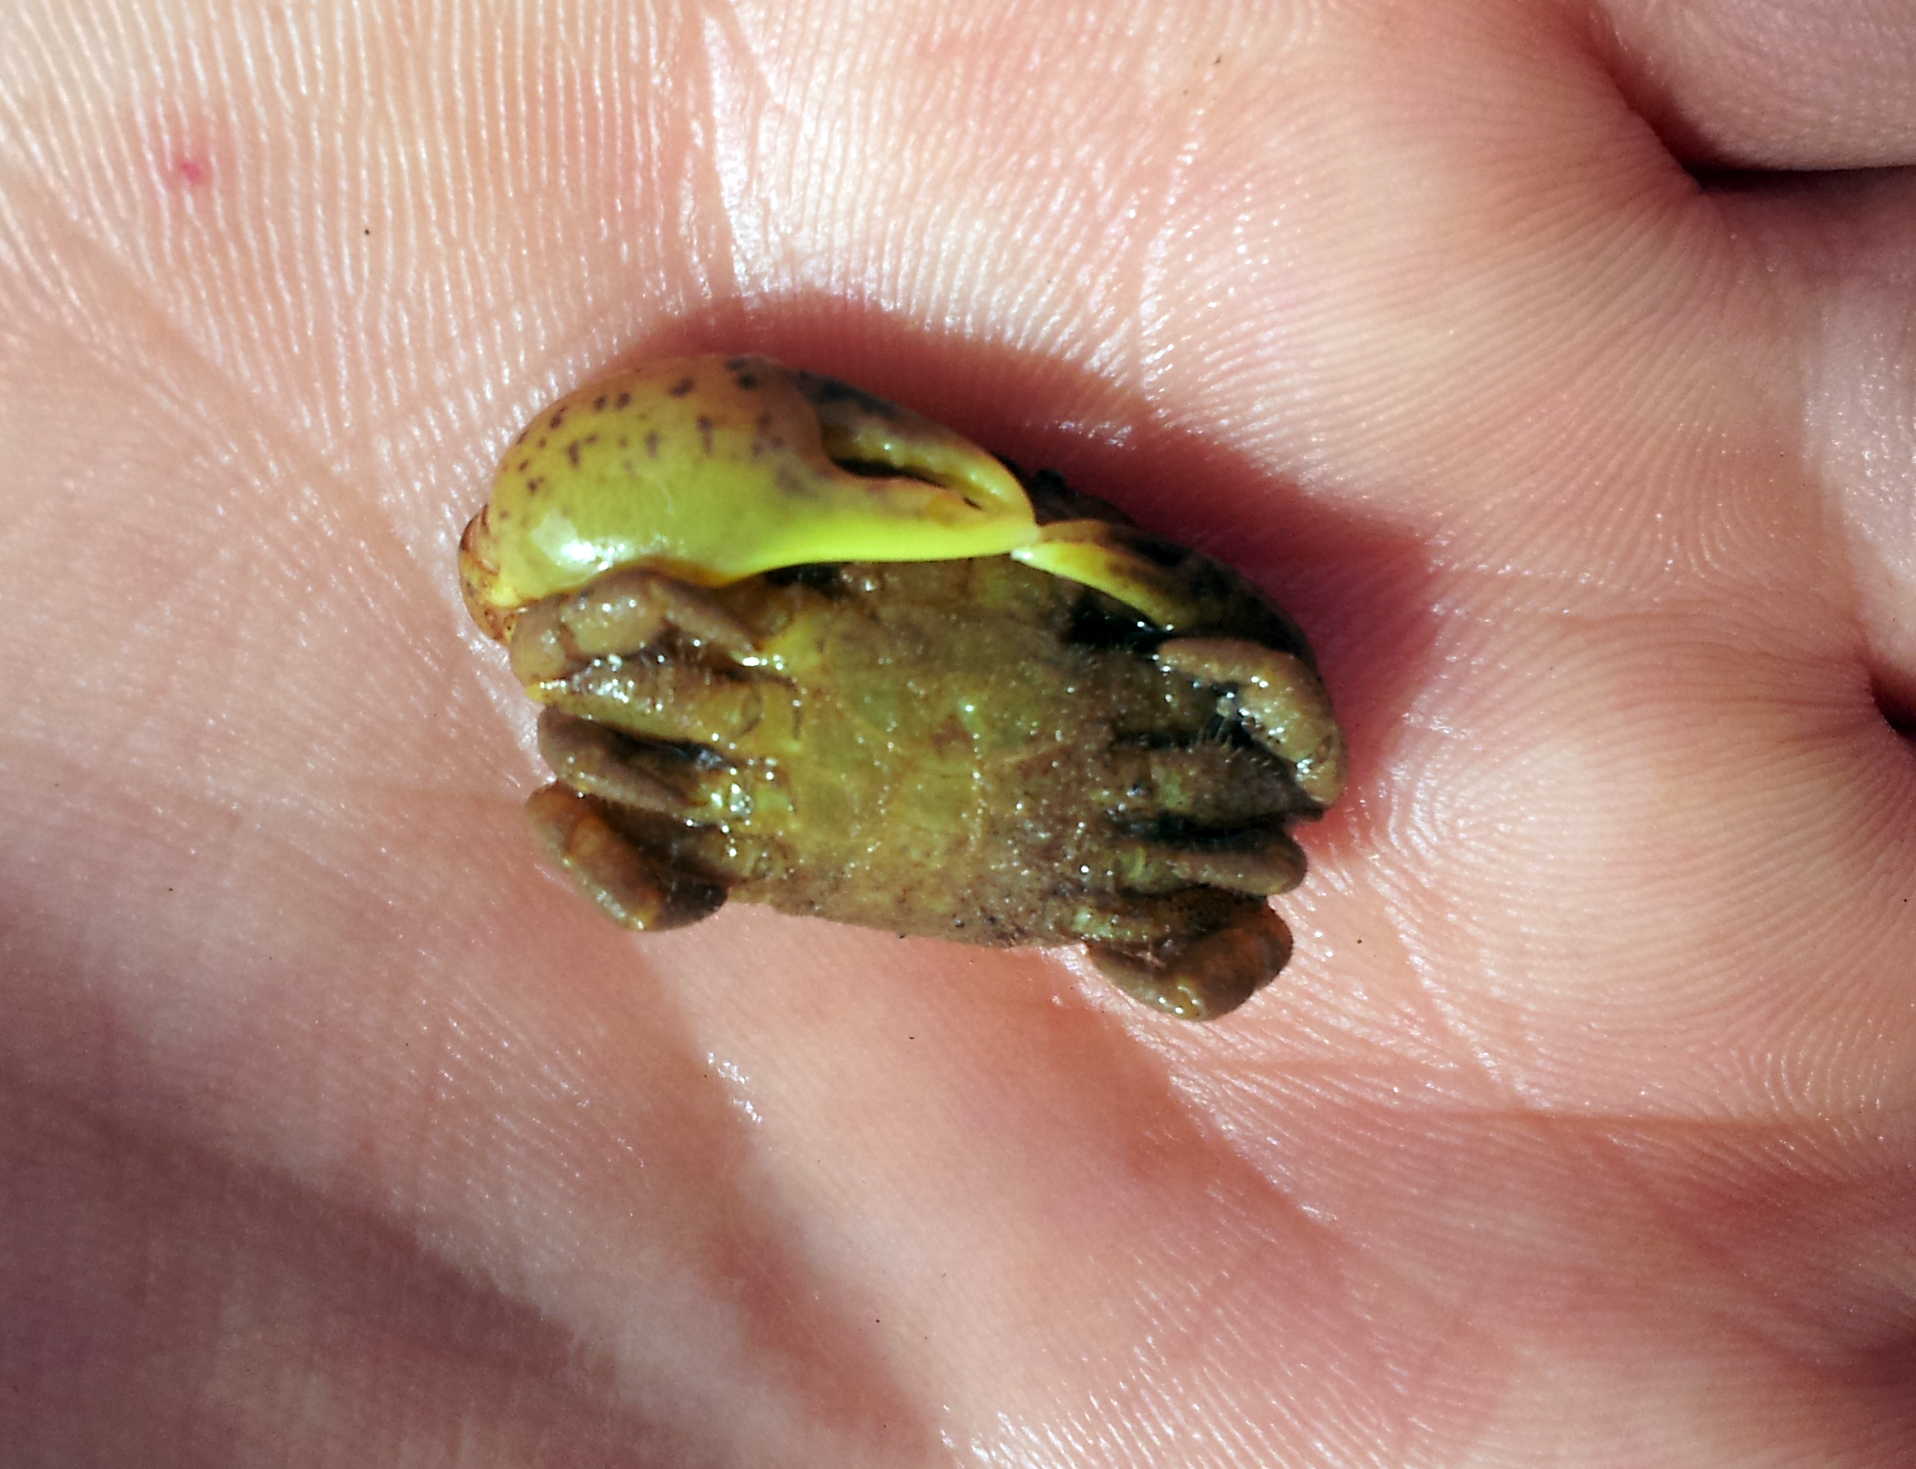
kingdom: Animalia
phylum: Arthropoda
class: Malacostraca
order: Decapoda
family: Heteroziidae
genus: Heterozius
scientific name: Heterozius rotundifrons
